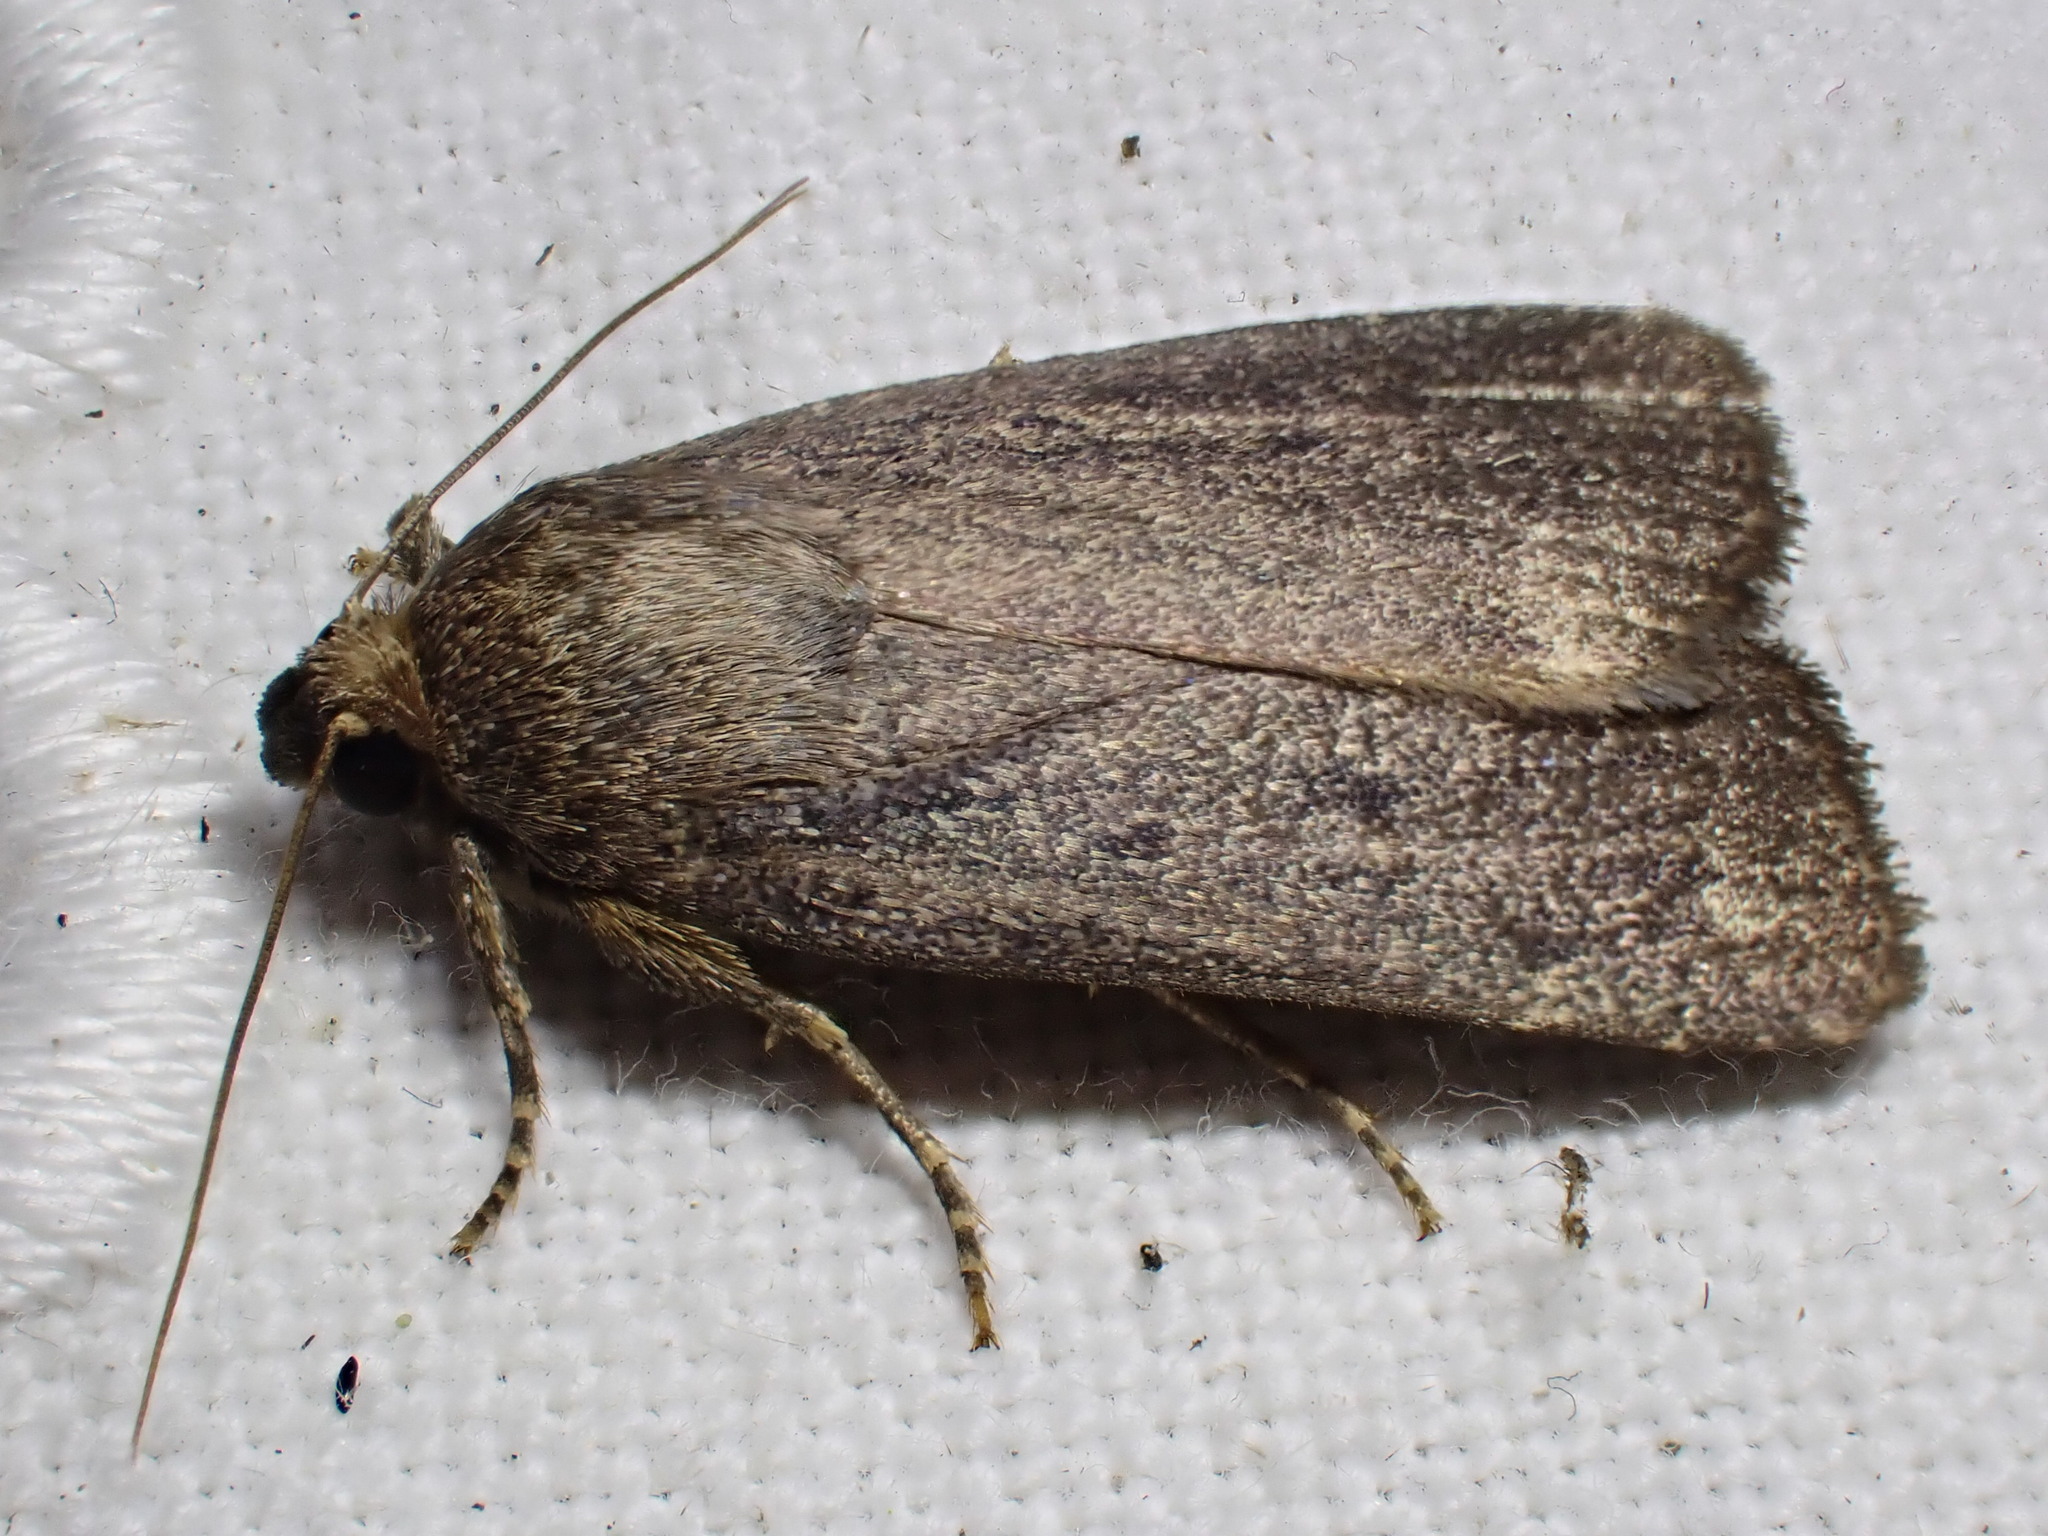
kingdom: Animalia
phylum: Arthropoda
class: Insecta
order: Lepidoptera
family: Noctuidae
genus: Amphipyra
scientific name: Amphipyra tragopoginis
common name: Mouse moth
